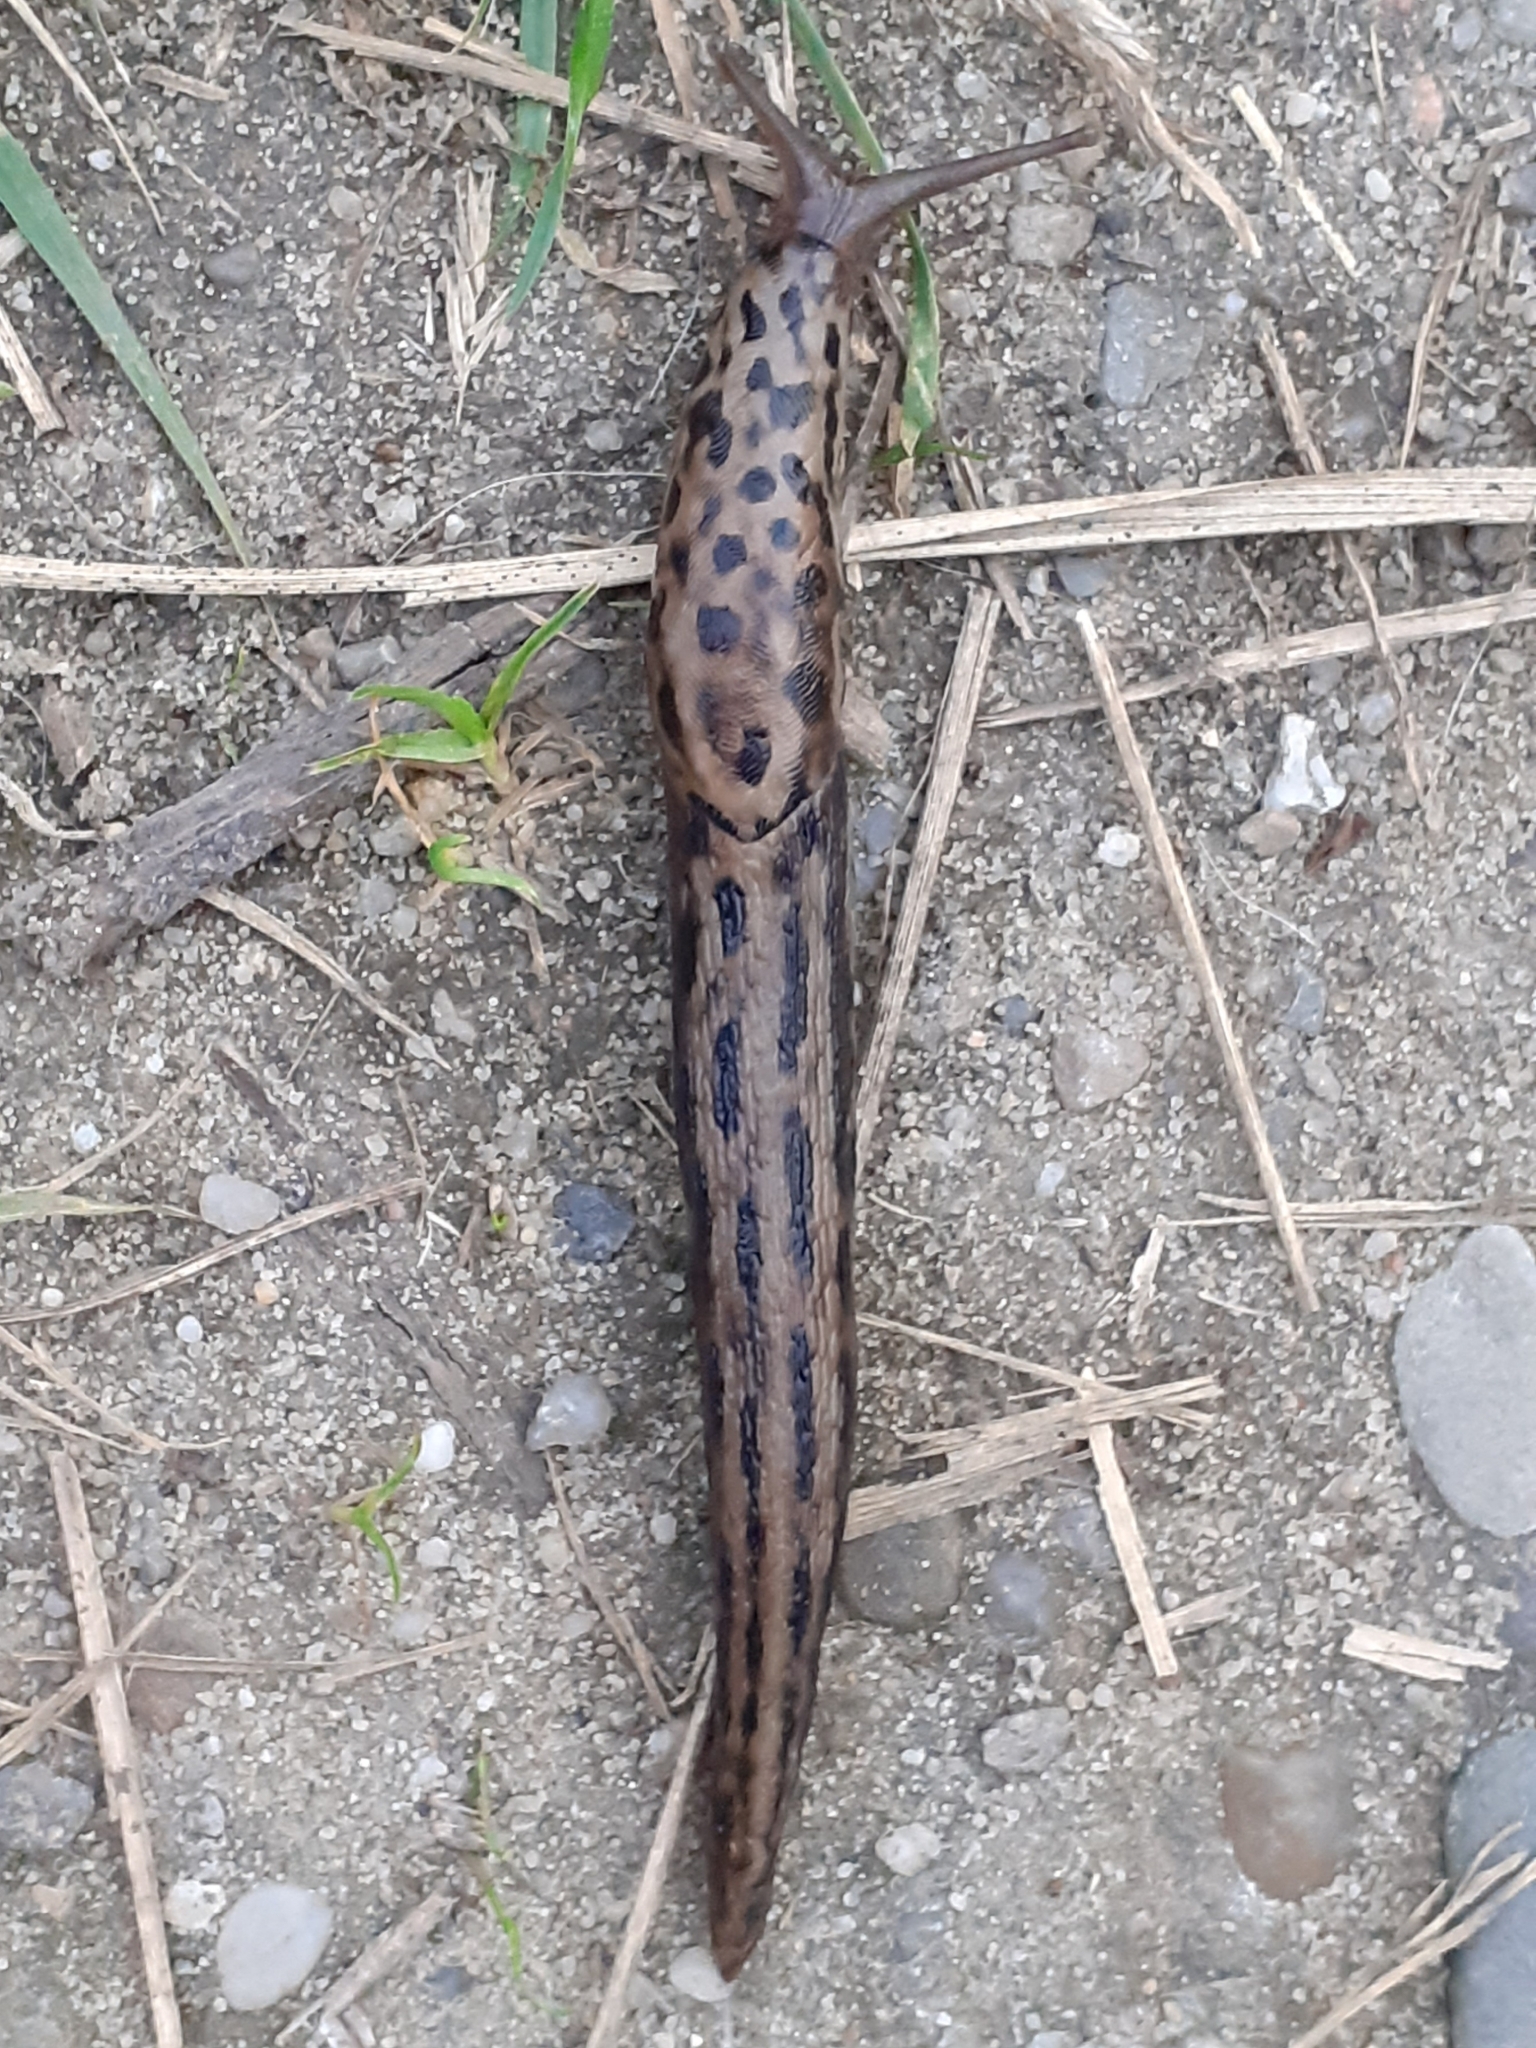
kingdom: Animalia
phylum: Mollusca
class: Gastropoda
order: Stylommatophora
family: Limacidae
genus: Limax
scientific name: Limax maximus
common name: Great grey slug
